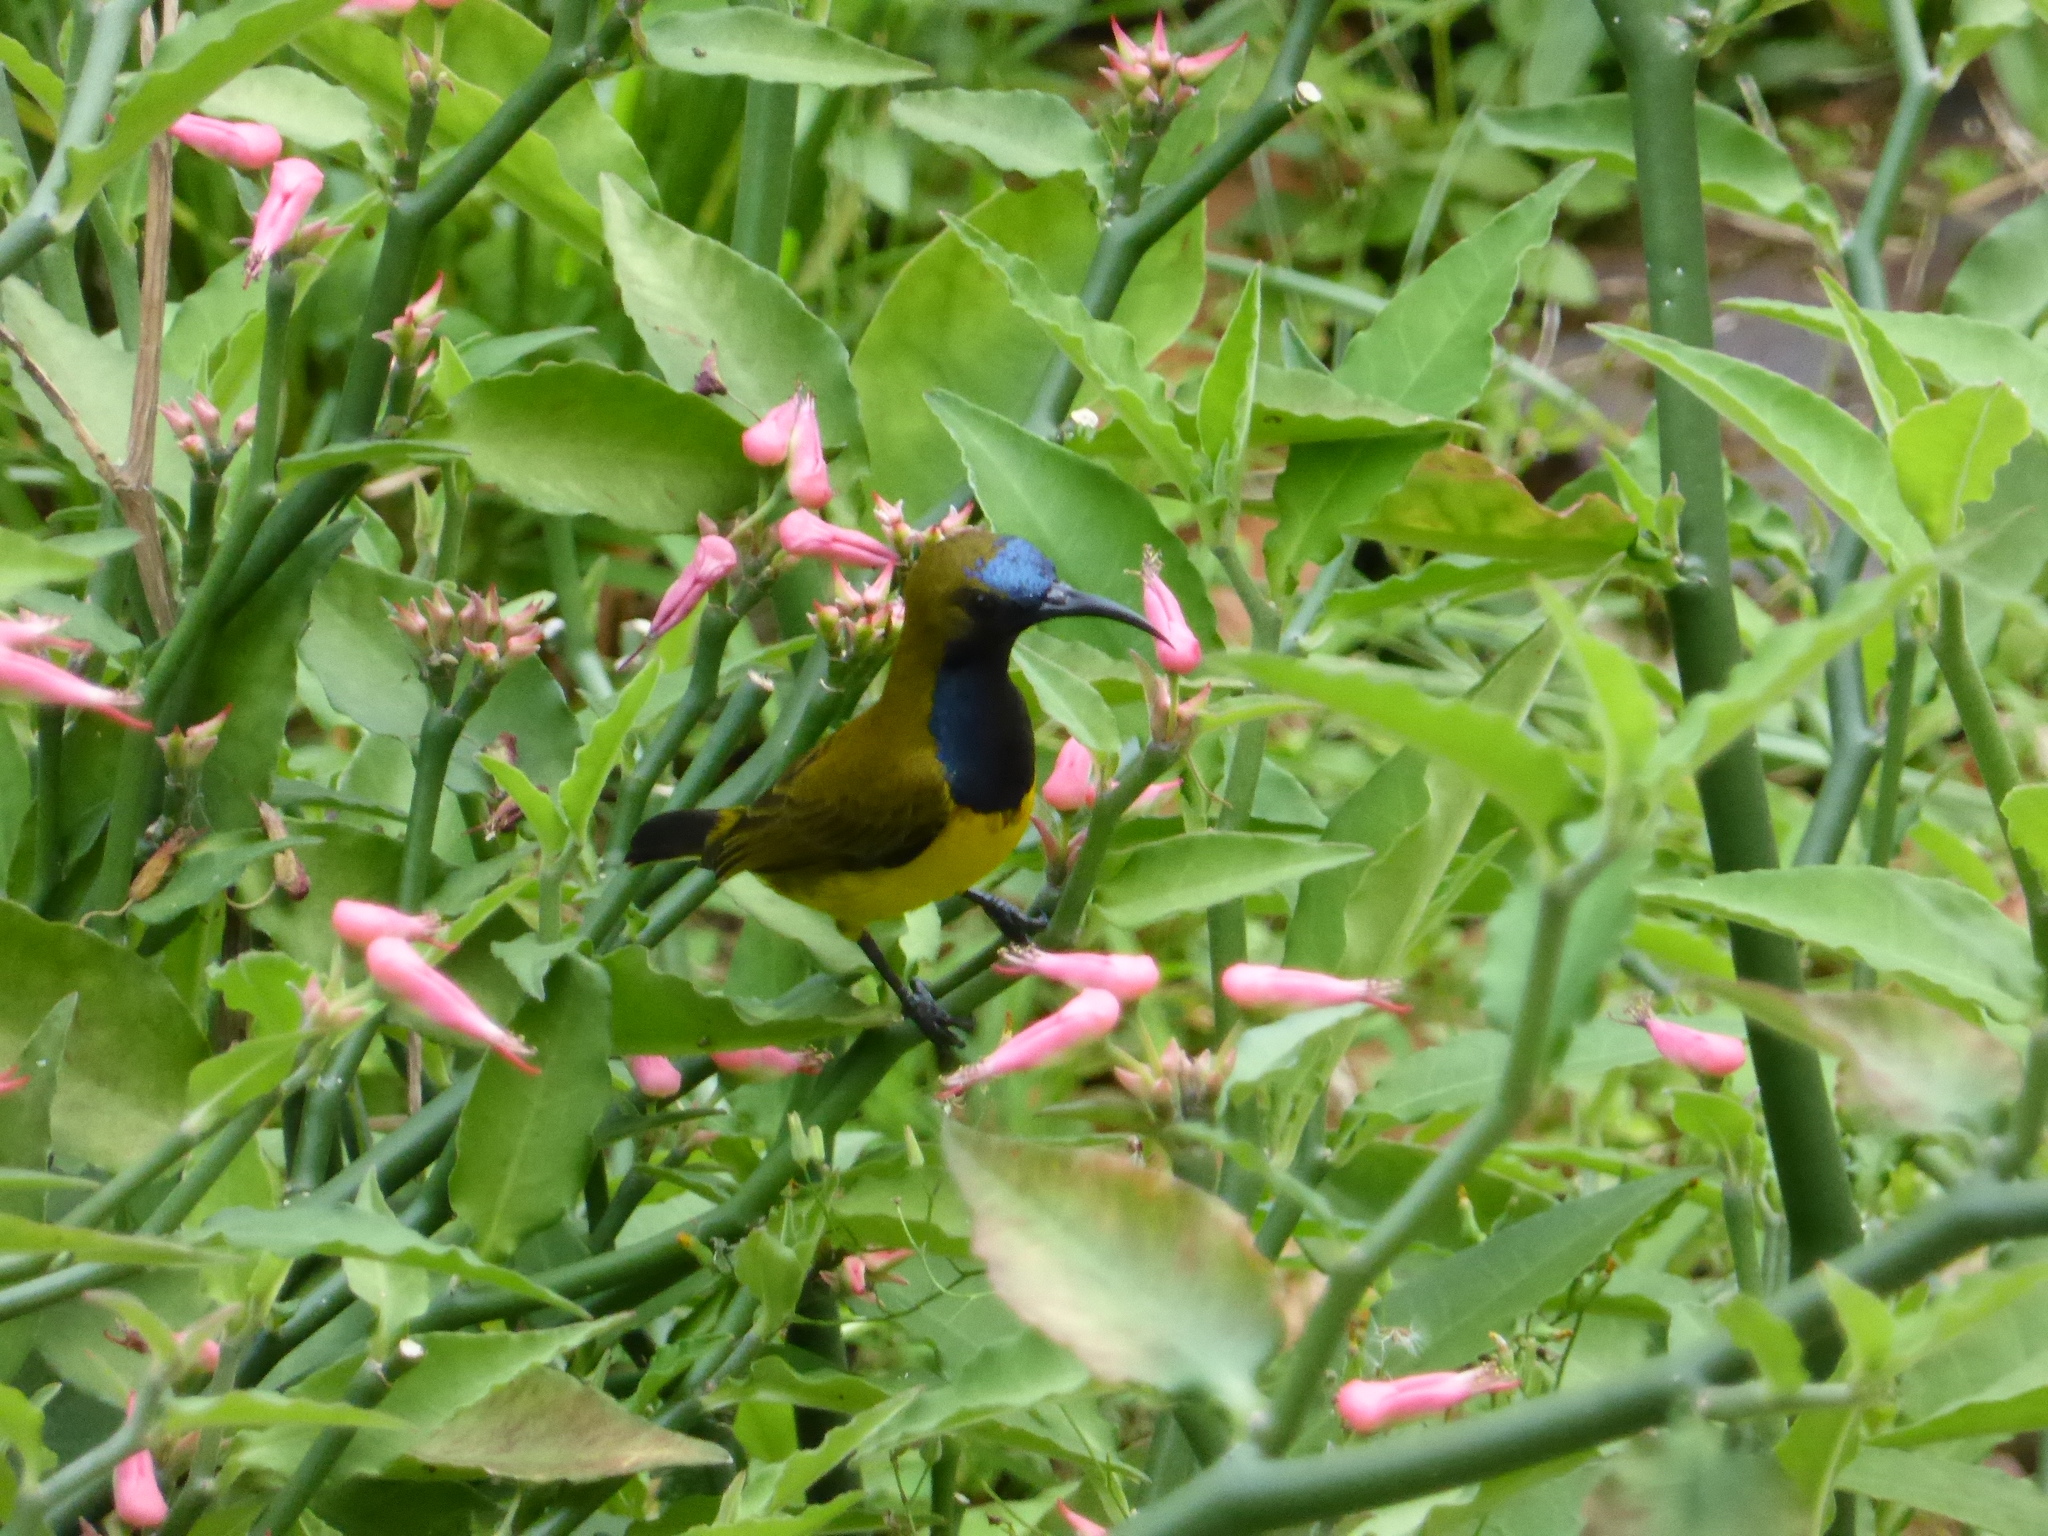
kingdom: Animalia
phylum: Chordata
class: Aves
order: Passeriformes
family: Nectariniidae
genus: Cinnyris
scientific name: Cinnyris
